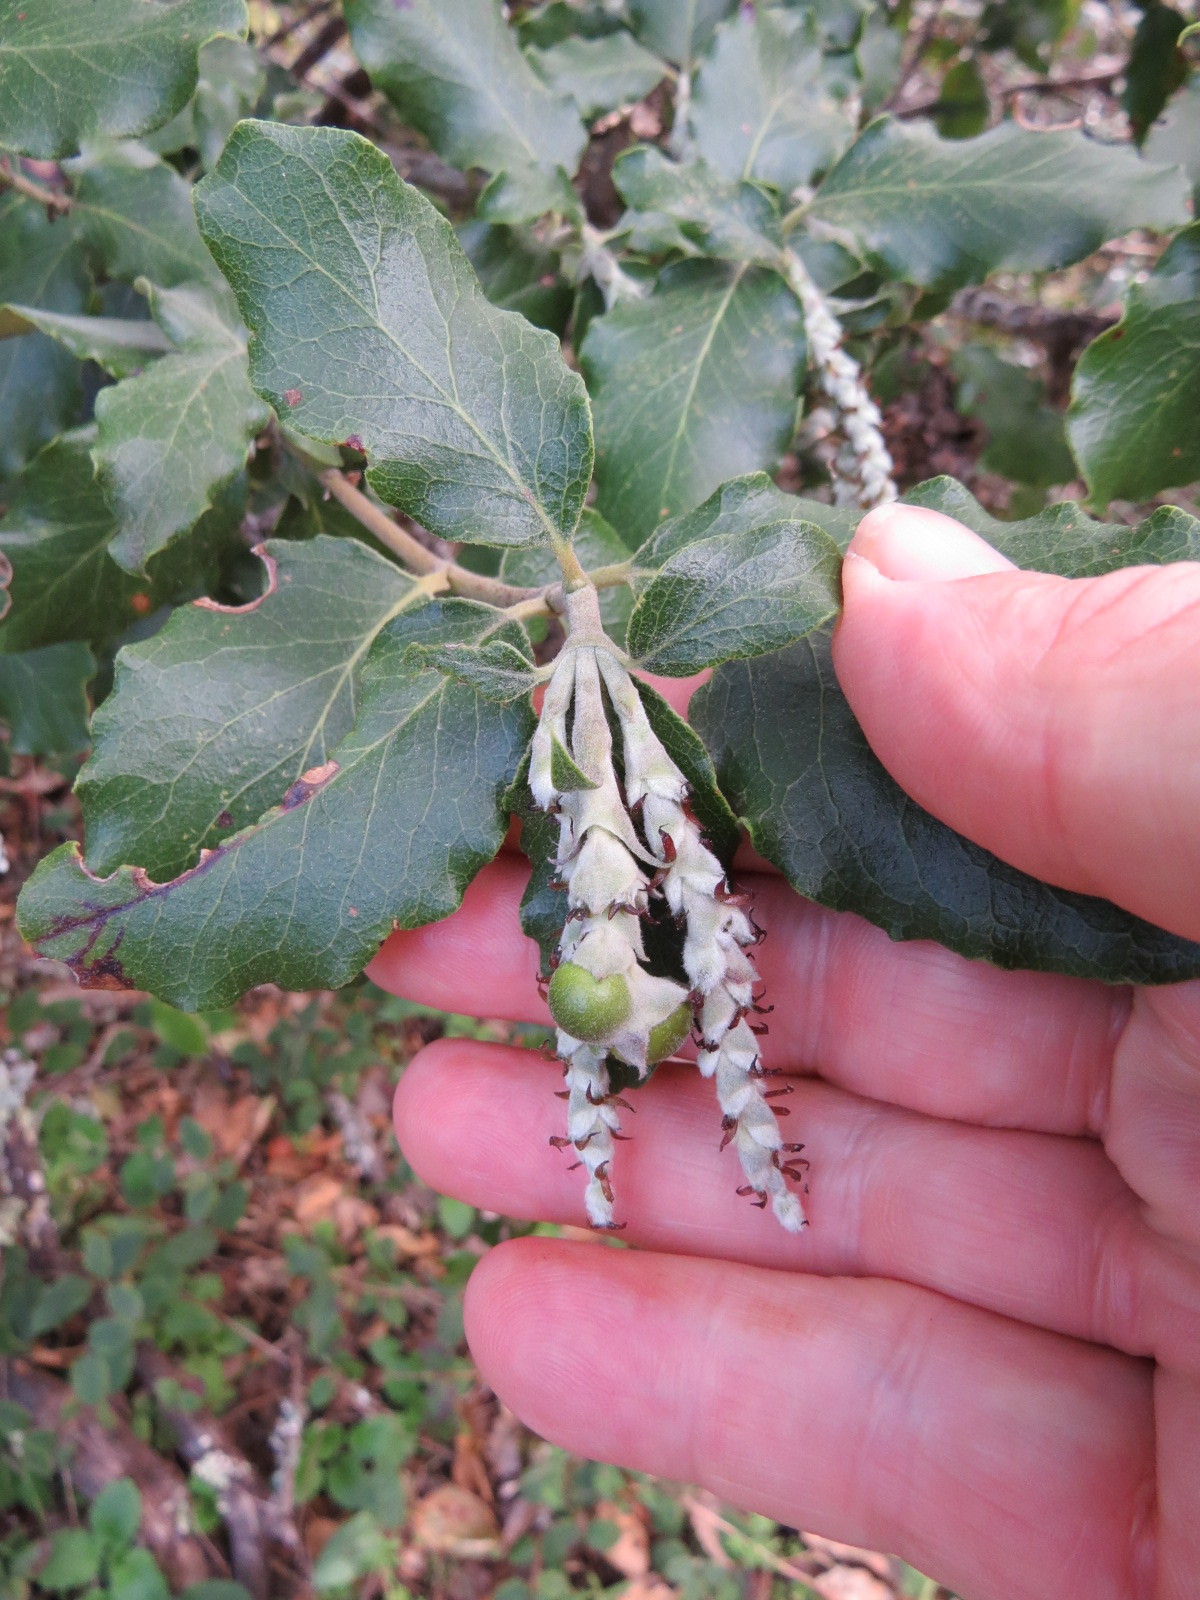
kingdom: Animalia
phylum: Arthropoda
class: Insecta
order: Diptera
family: Cecidomyiidae
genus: Asphondylia
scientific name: Asphondylia garryae
